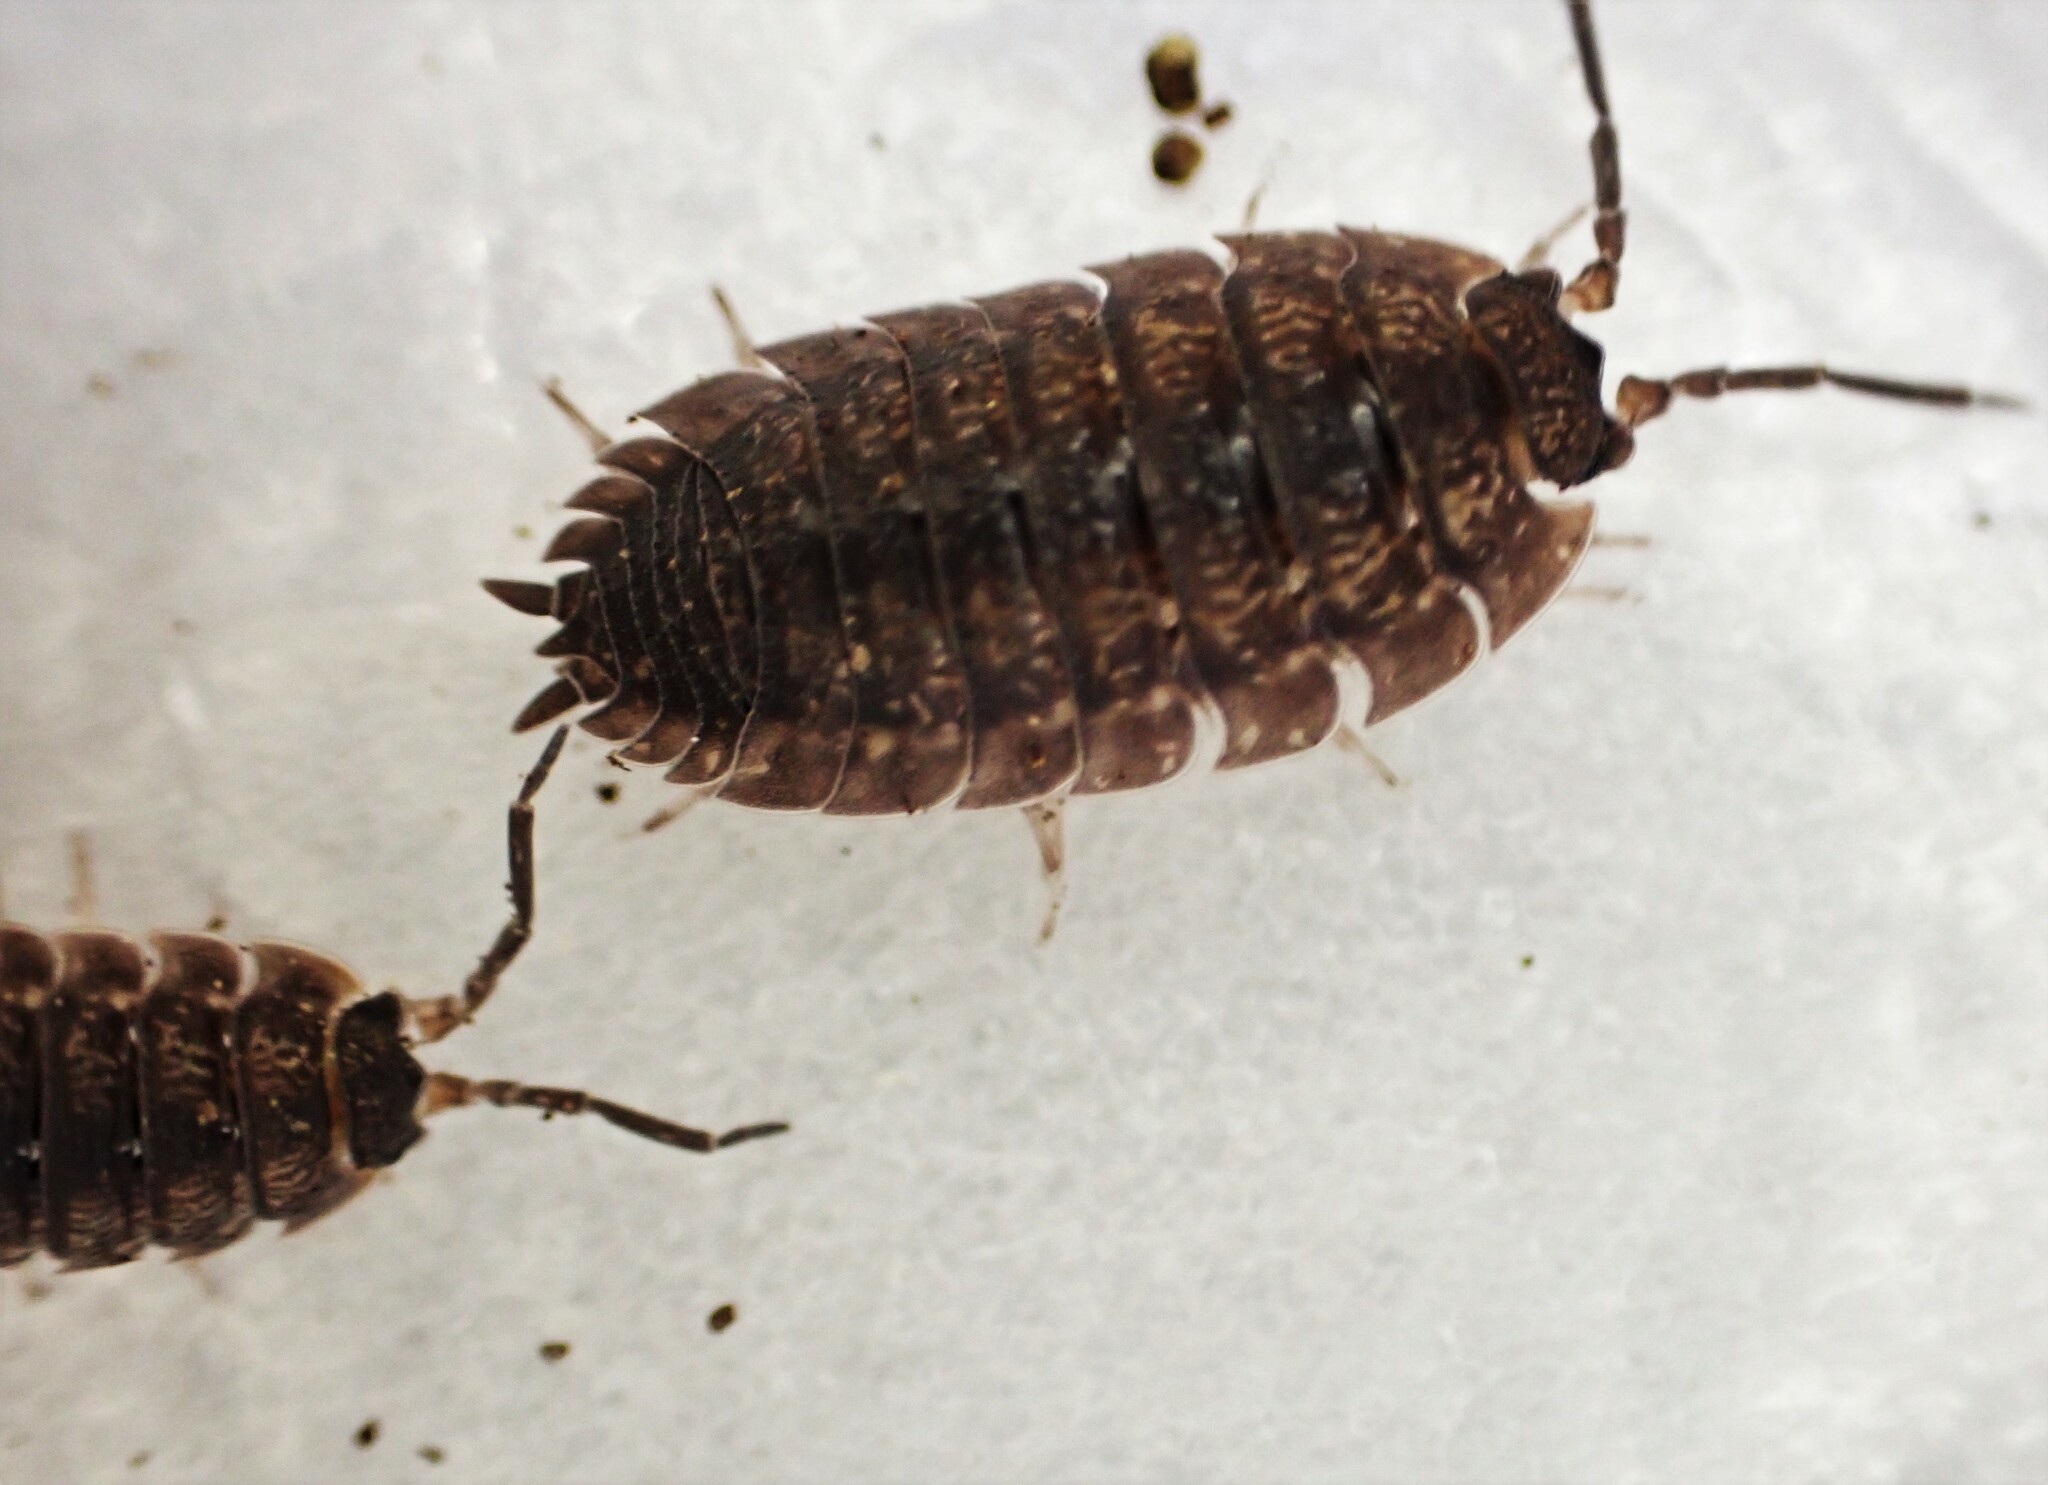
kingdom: Animalia
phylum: Arthropoda
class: Malacostraca
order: Isopoda
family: Porcellionidae
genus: Porcellio
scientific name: Porcellio scaber
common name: Common rough woodlouse
